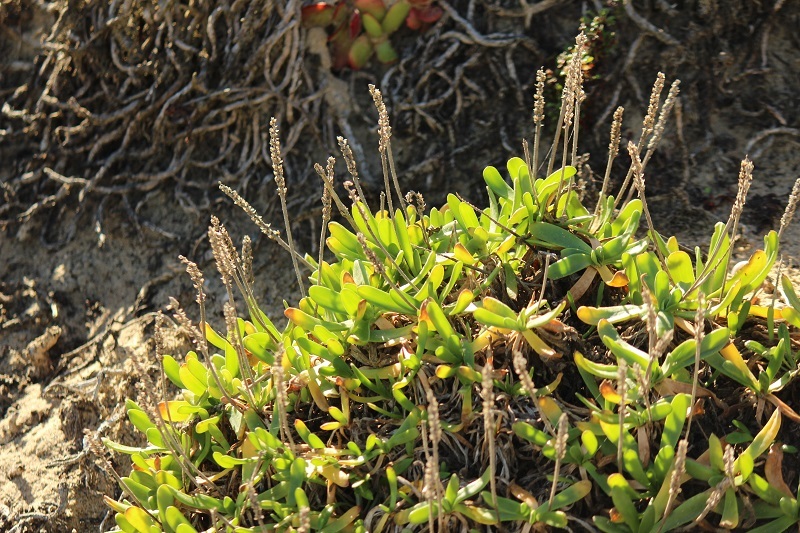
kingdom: Plantae
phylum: Tracheophyta
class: Magnoliopsida
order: Lamiales
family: Plantaginaceae
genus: Plantago
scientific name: Plantago carnosa
